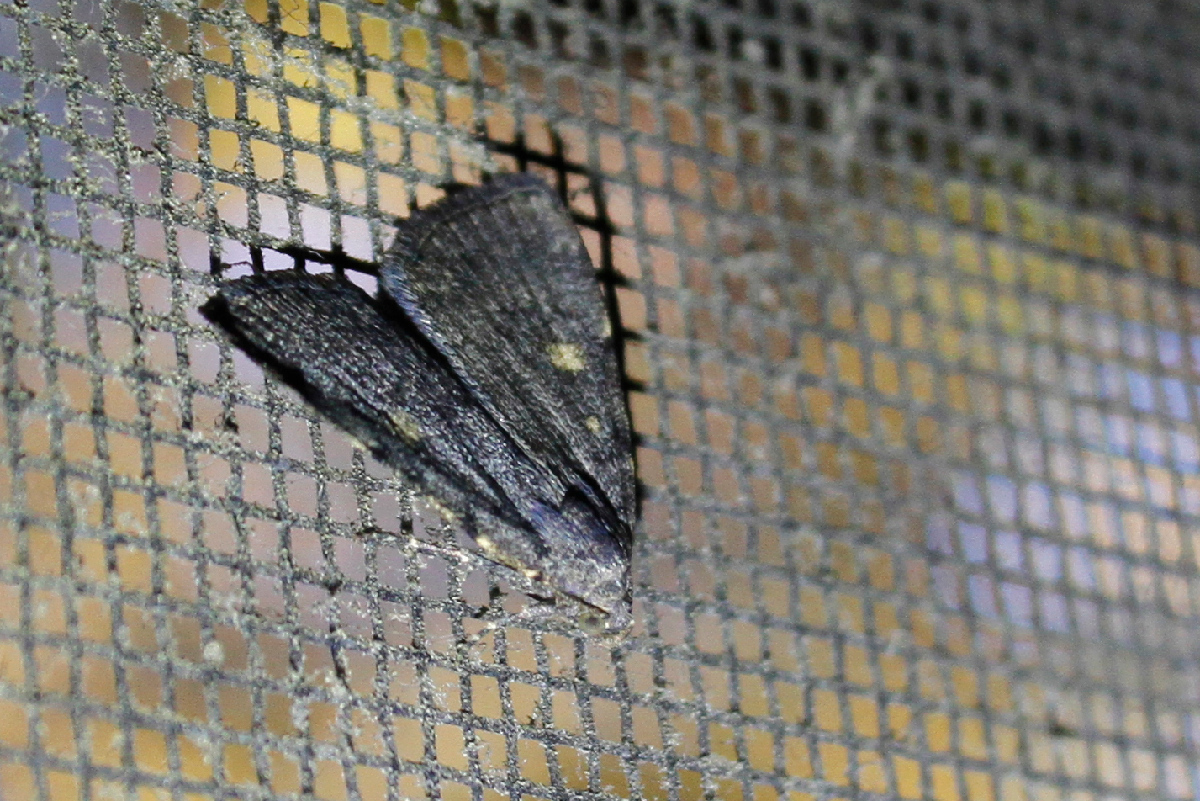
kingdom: Animalia
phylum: Arthropoda
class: Insecta
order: Lepidoptera
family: Erebidae
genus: Idia
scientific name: Idia aemula
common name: Common idia moth
